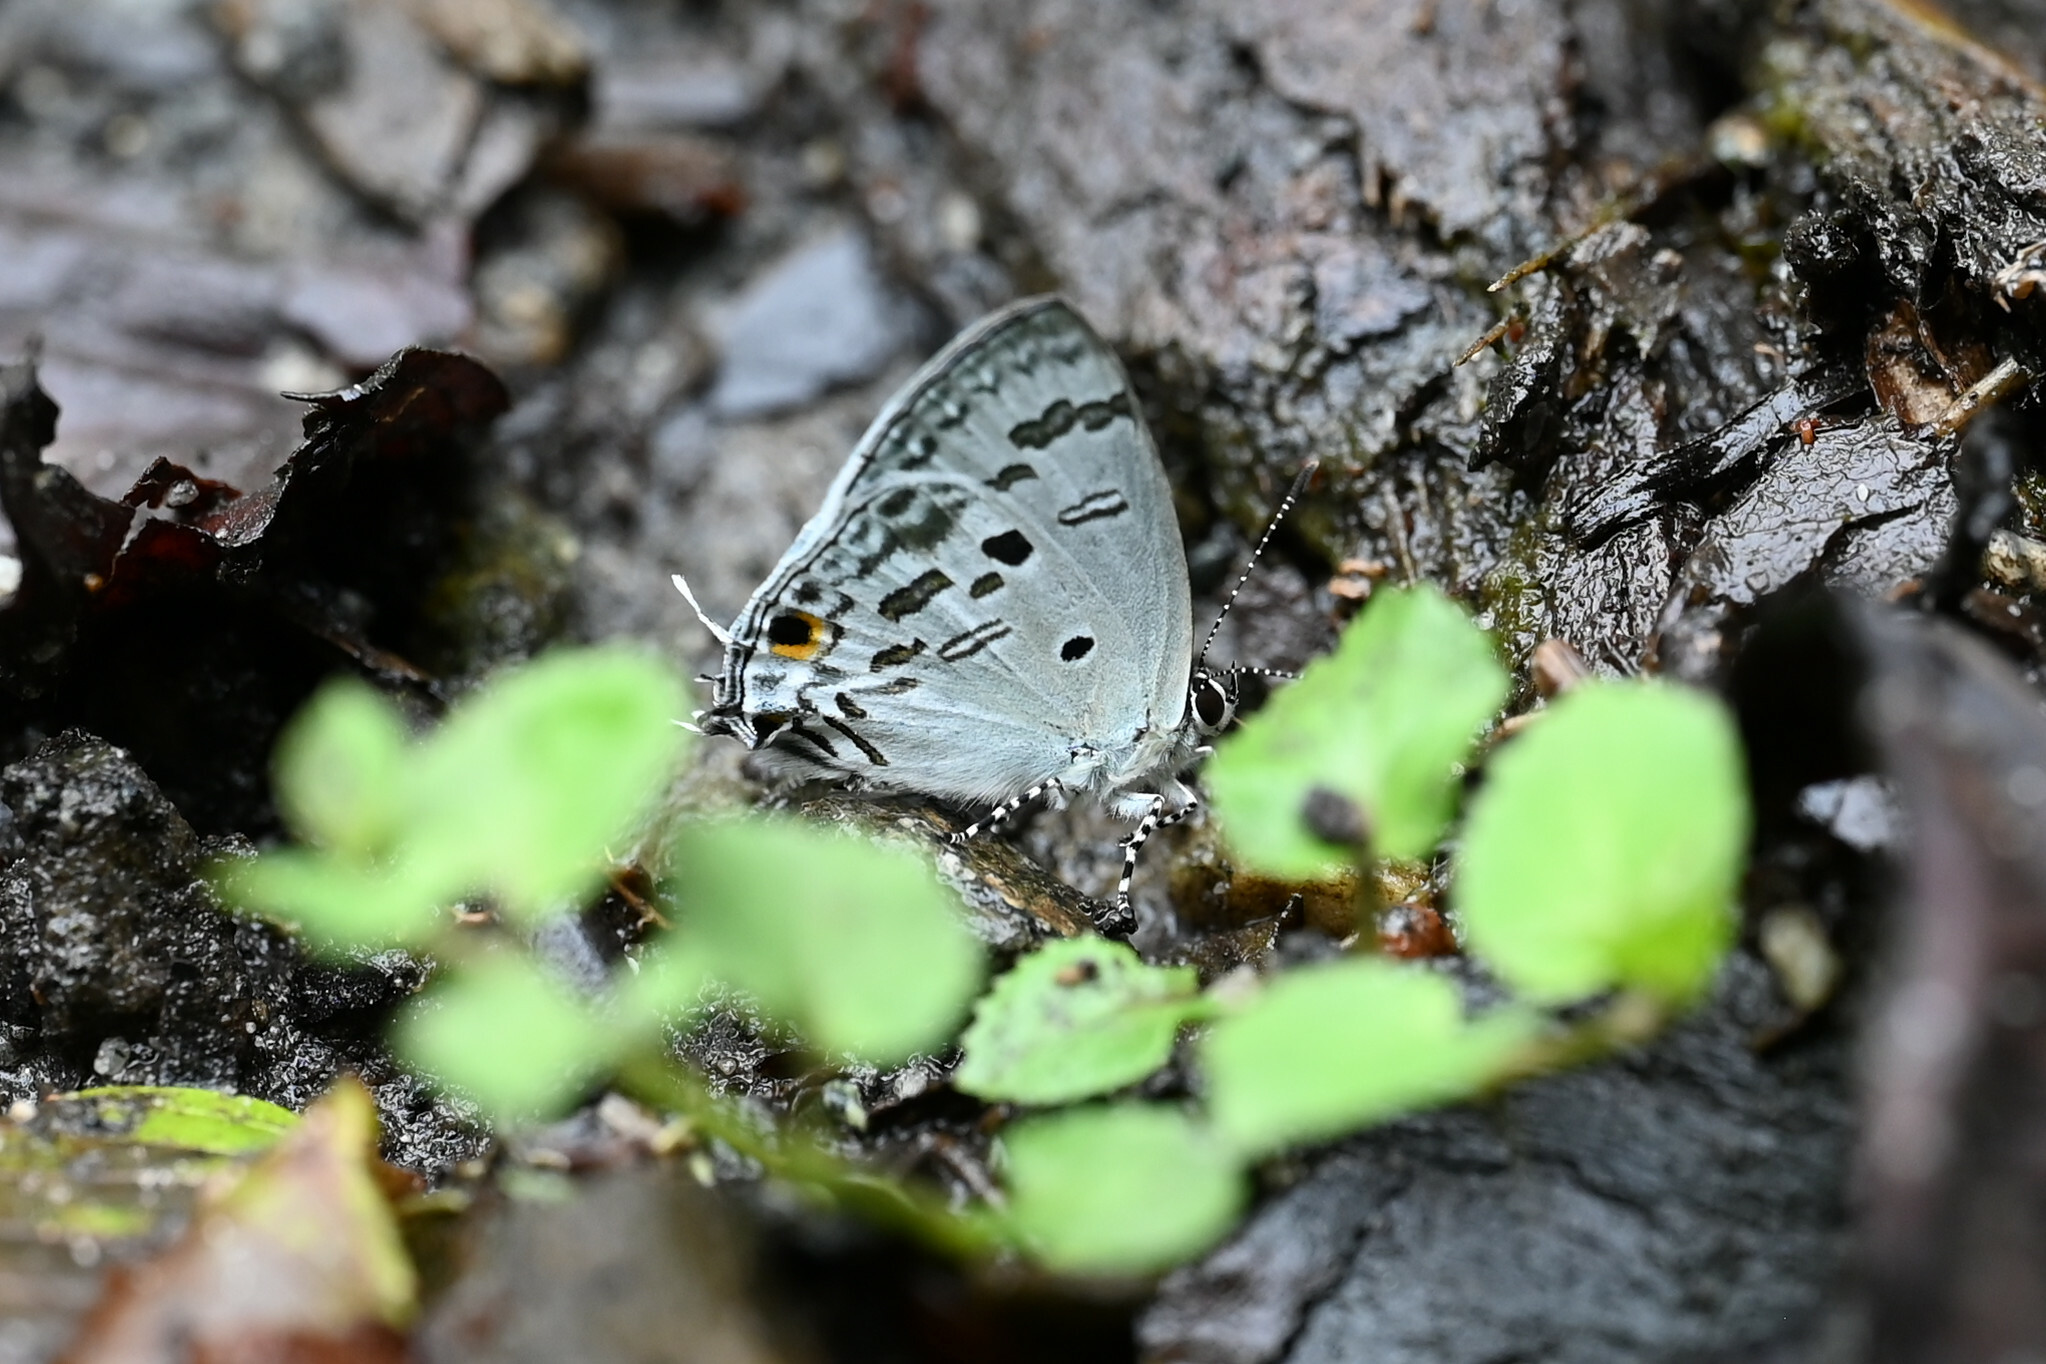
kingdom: Animalia
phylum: Arthropoda
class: Insecta
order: Lepidoptera
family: Lycaenidae
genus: Chliaria
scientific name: Chliaria kina
